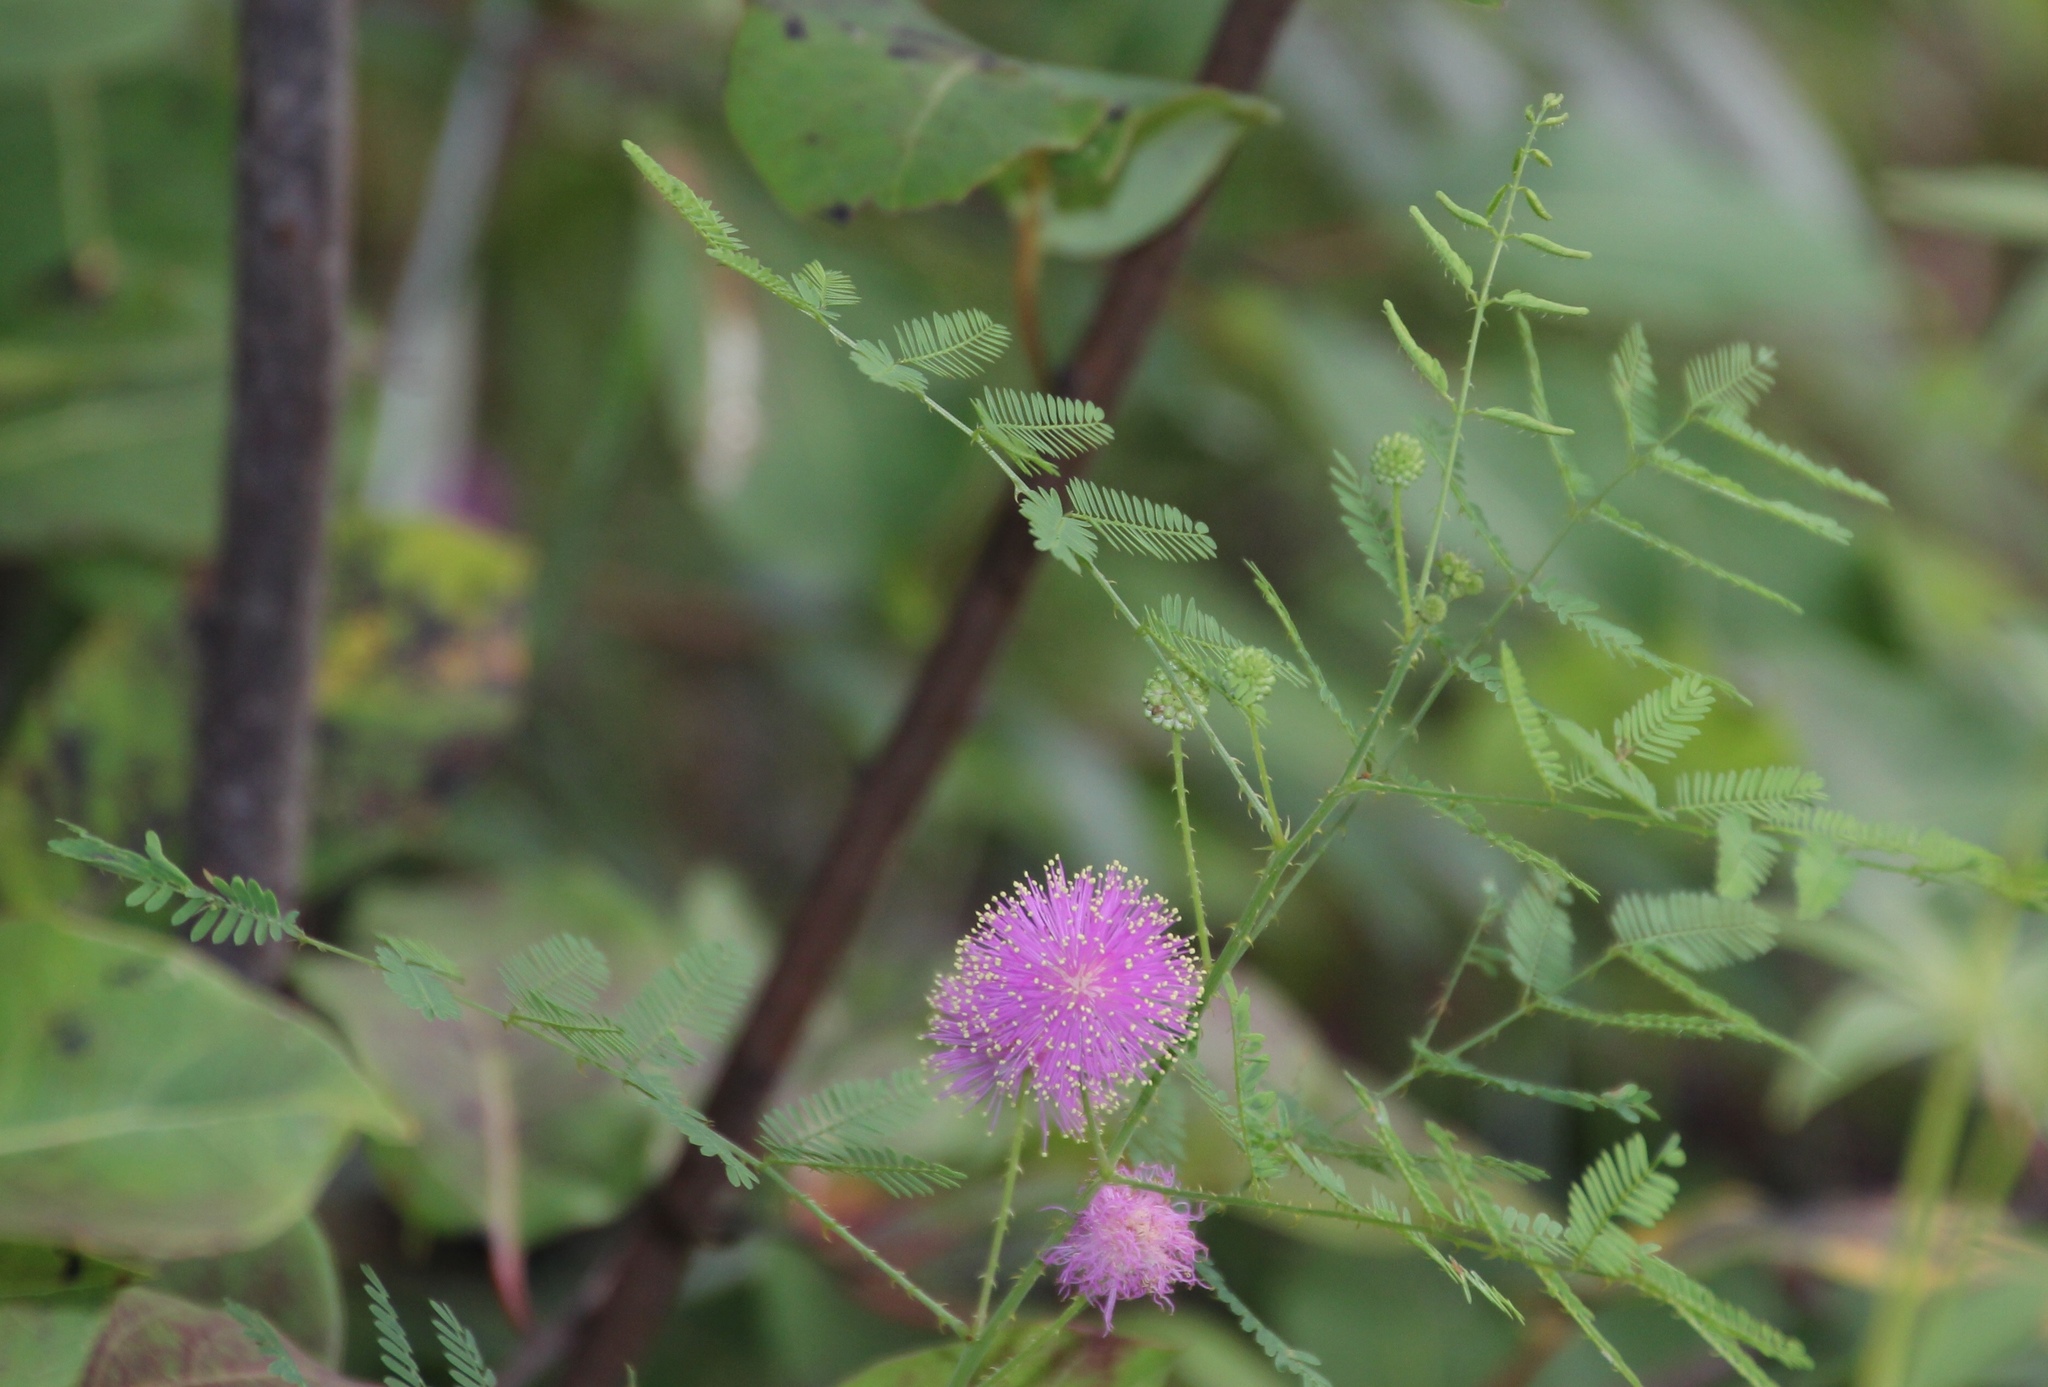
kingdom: Plantae
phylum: Tracheophyta
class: Magnoliopsida
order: Fabales
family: Fabaceae
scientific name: Fabaceae
